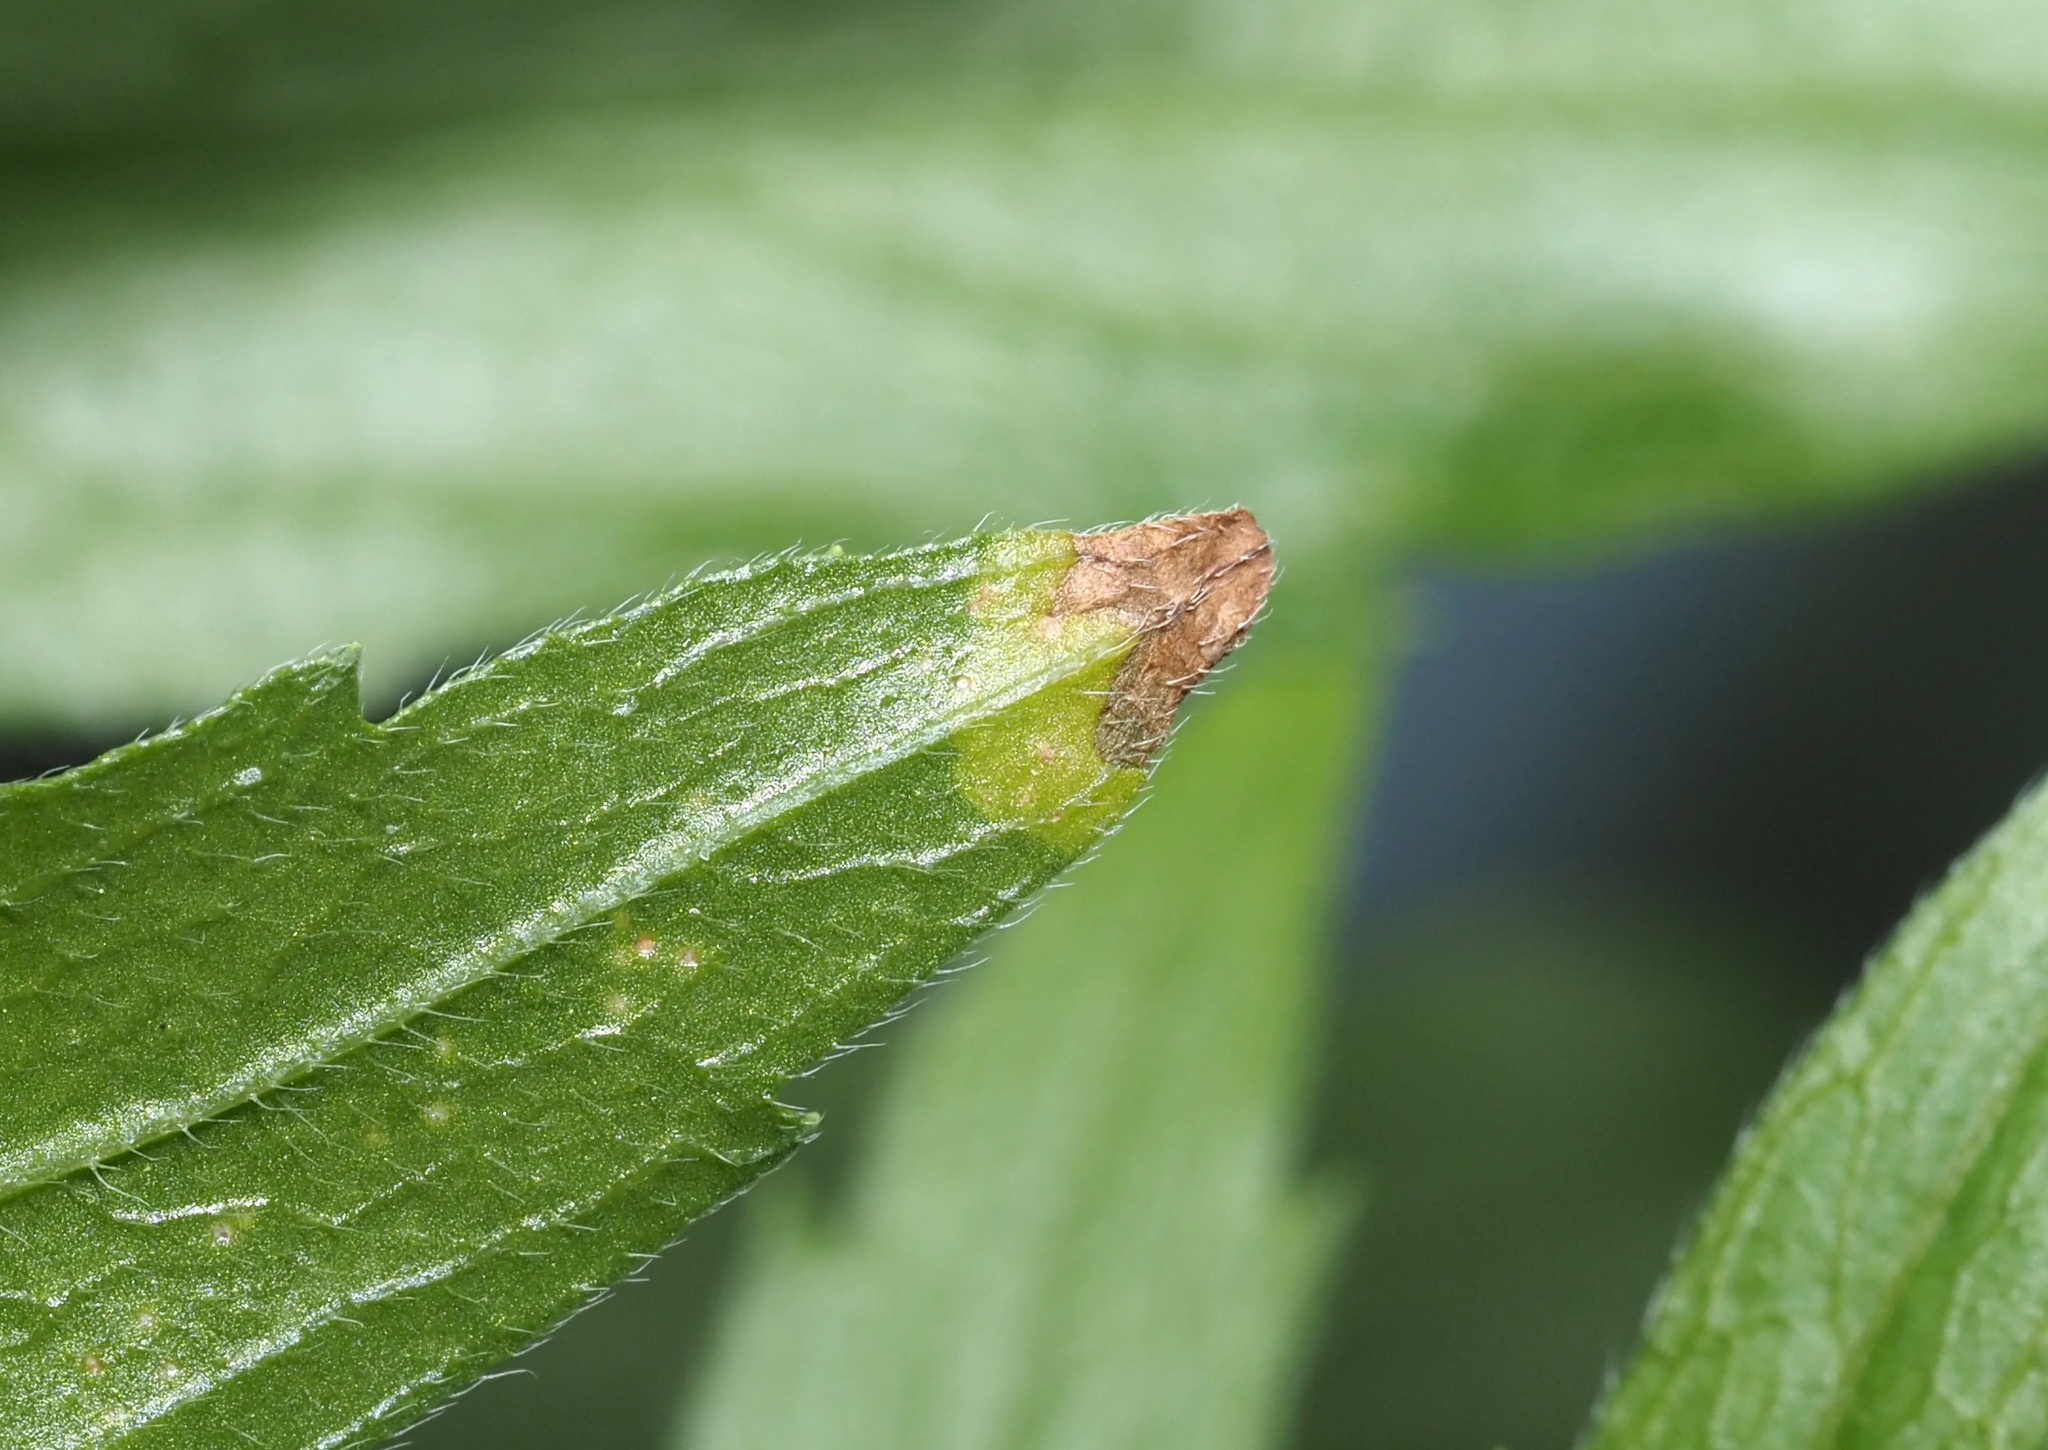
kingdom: Animalia
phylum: Arthropoda
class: Insecta
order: Diptera
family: Agromyzidae
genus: Nemorimyza
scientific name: Nemorimyza maculosa
